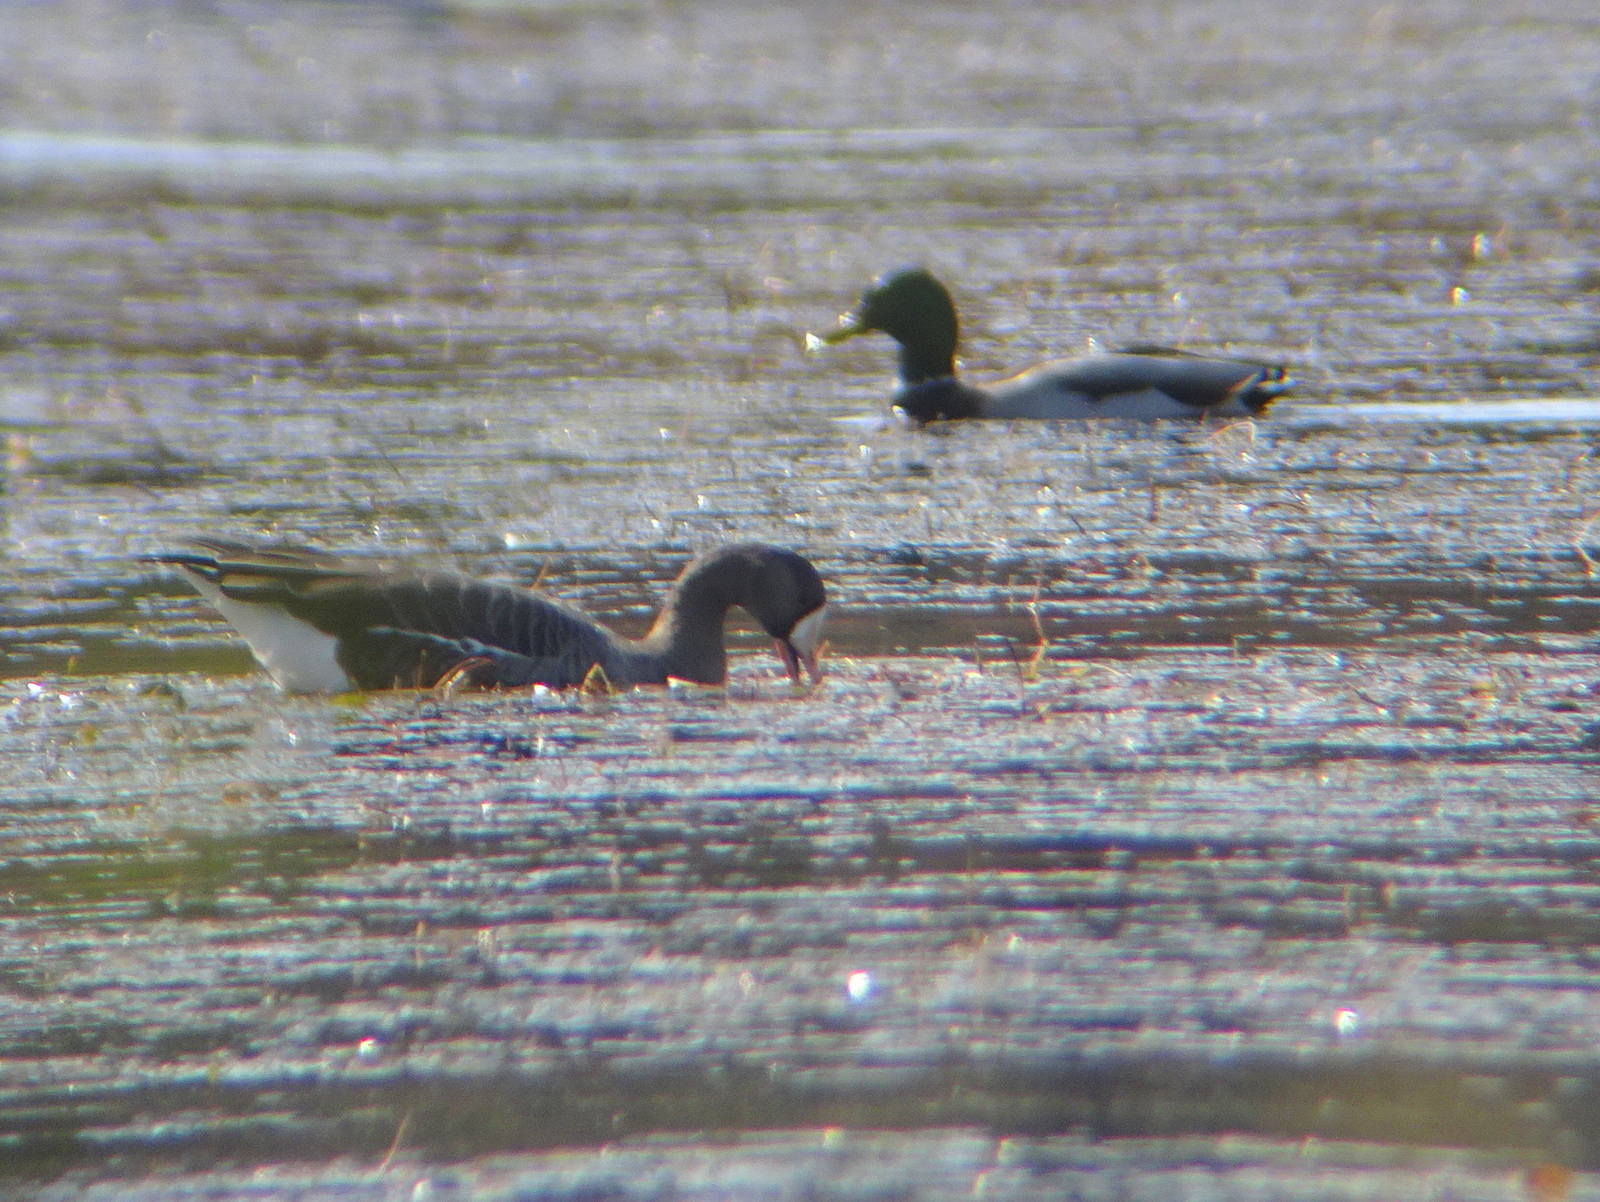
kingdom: Animalia
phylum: Chordata
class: Aves
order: Anseriformes
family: Anatidae
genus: Anser
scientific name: Anser albifrons
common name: Greater white-fronted goose
